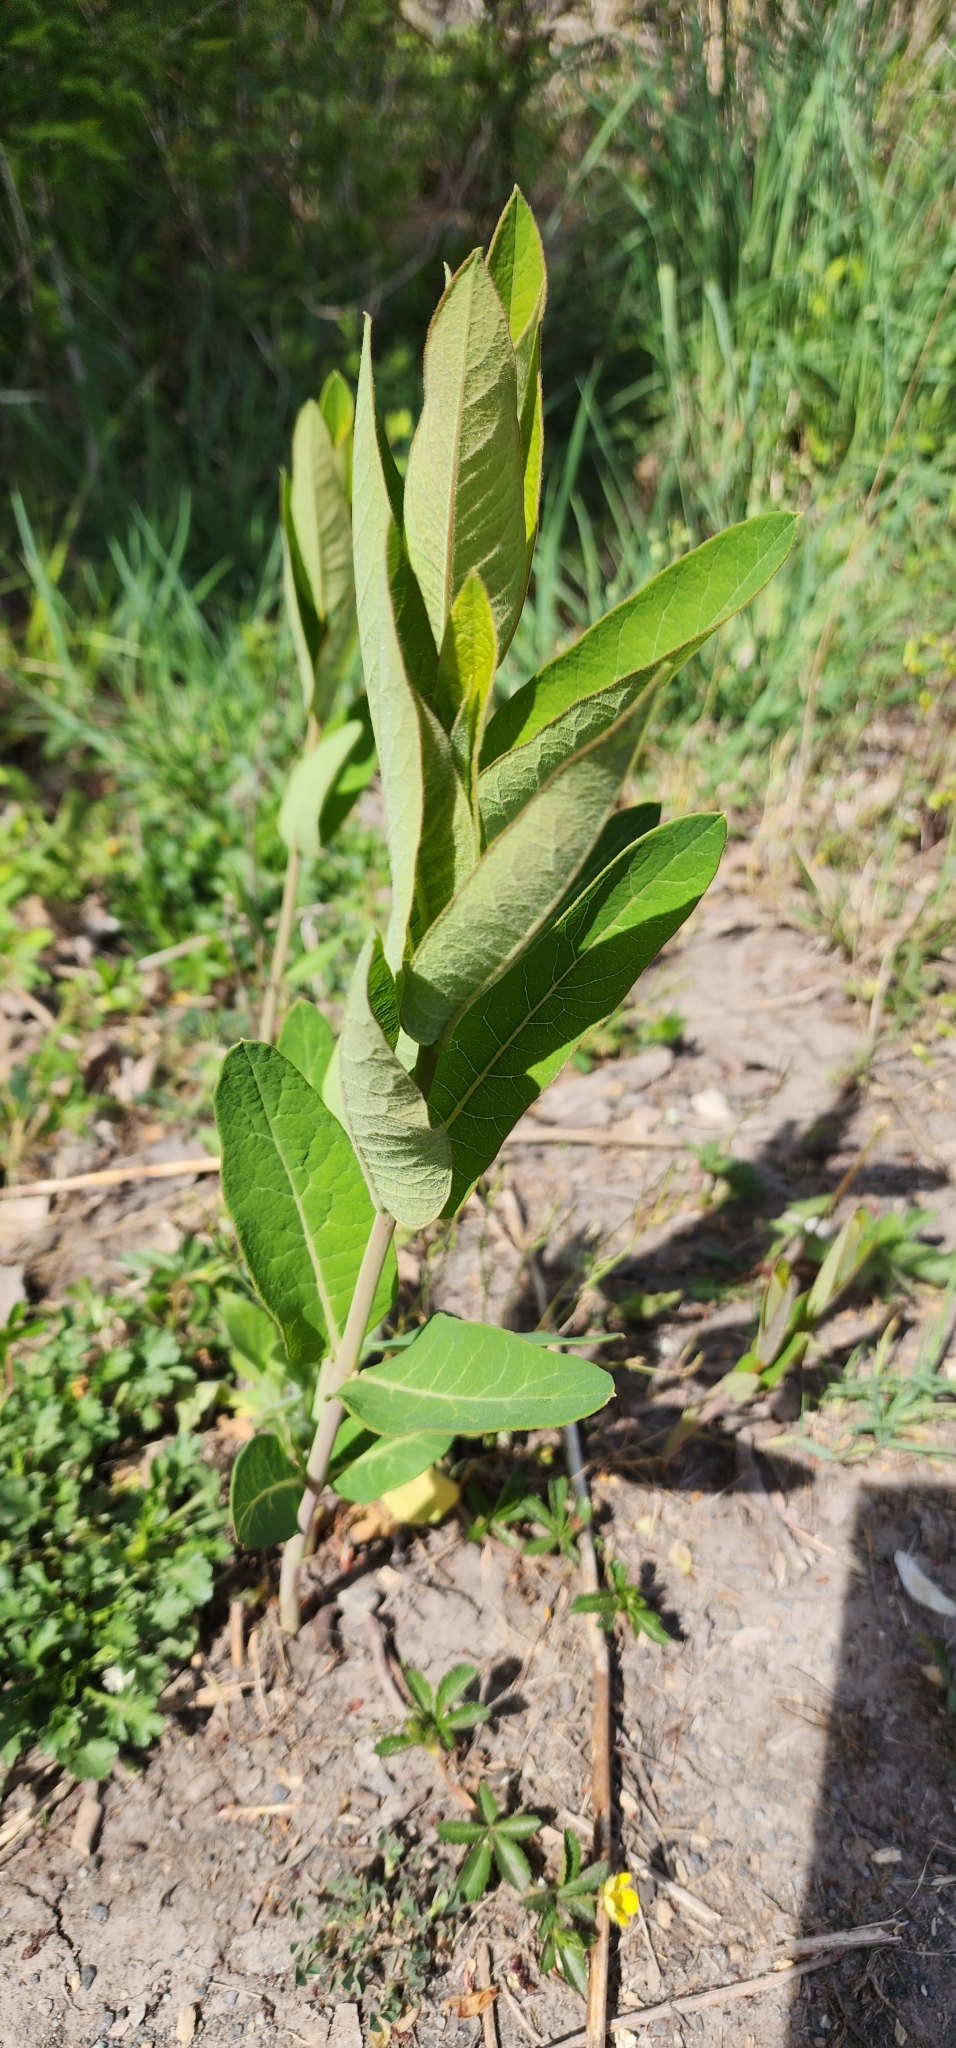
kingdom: Plantae
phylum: Tracheophyta
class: Magnoliopsida
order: Gentianales
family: Apocynaceae
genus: Asclepias
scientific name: Asclepias syriaca
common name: Common milkweed
